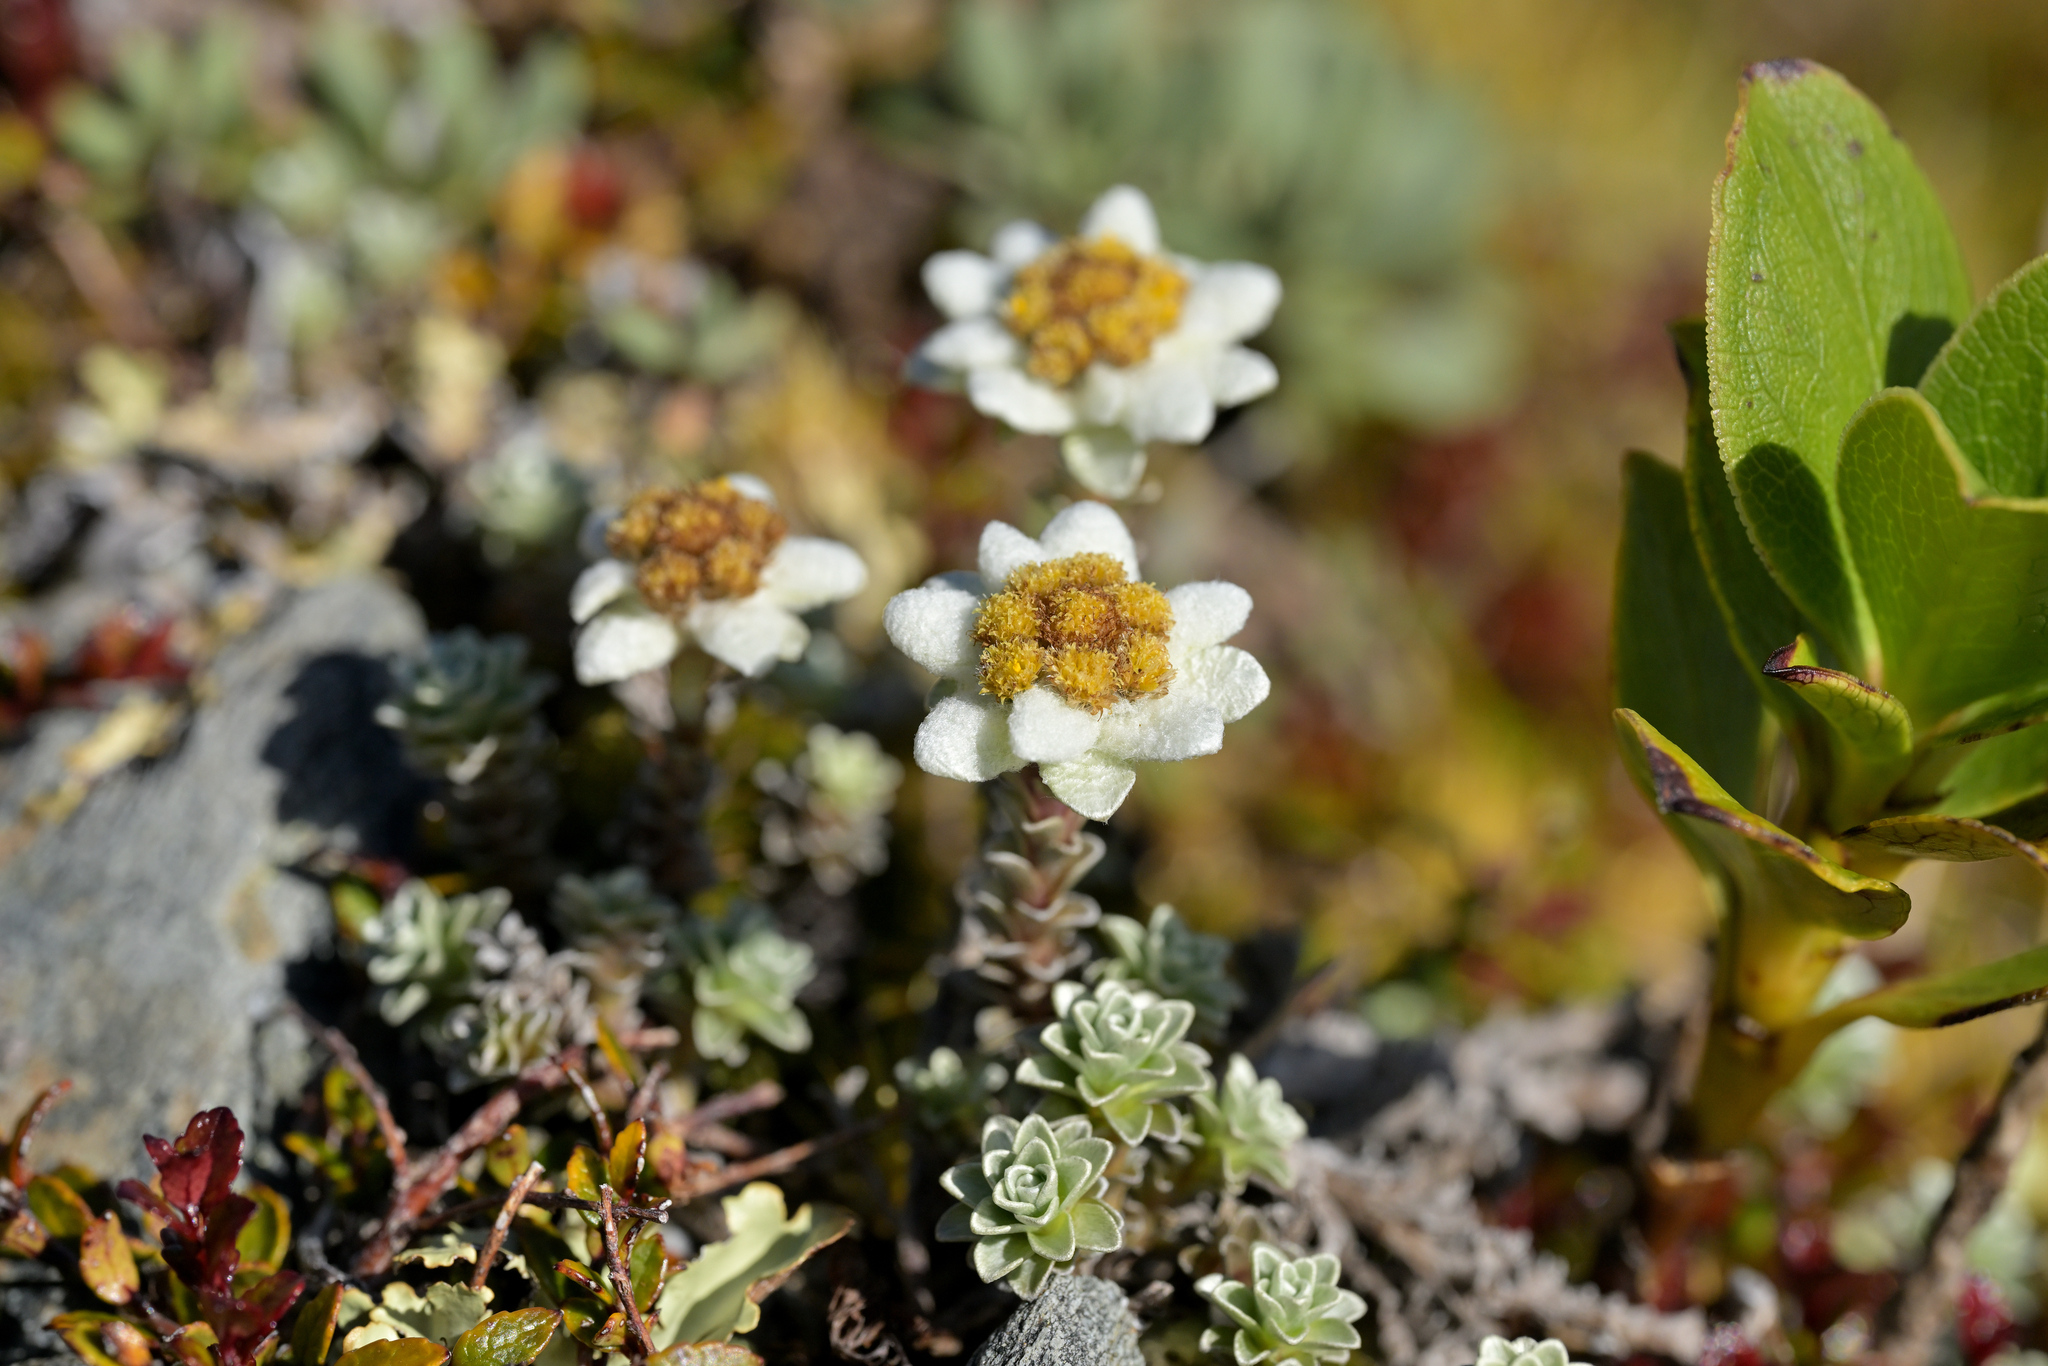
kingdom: Plantae
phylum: Tracheophyta
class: Magnoliopsida
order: Asterales
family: Asteraceae
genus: Leucogenes
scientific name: Leucogenes grandiceps
